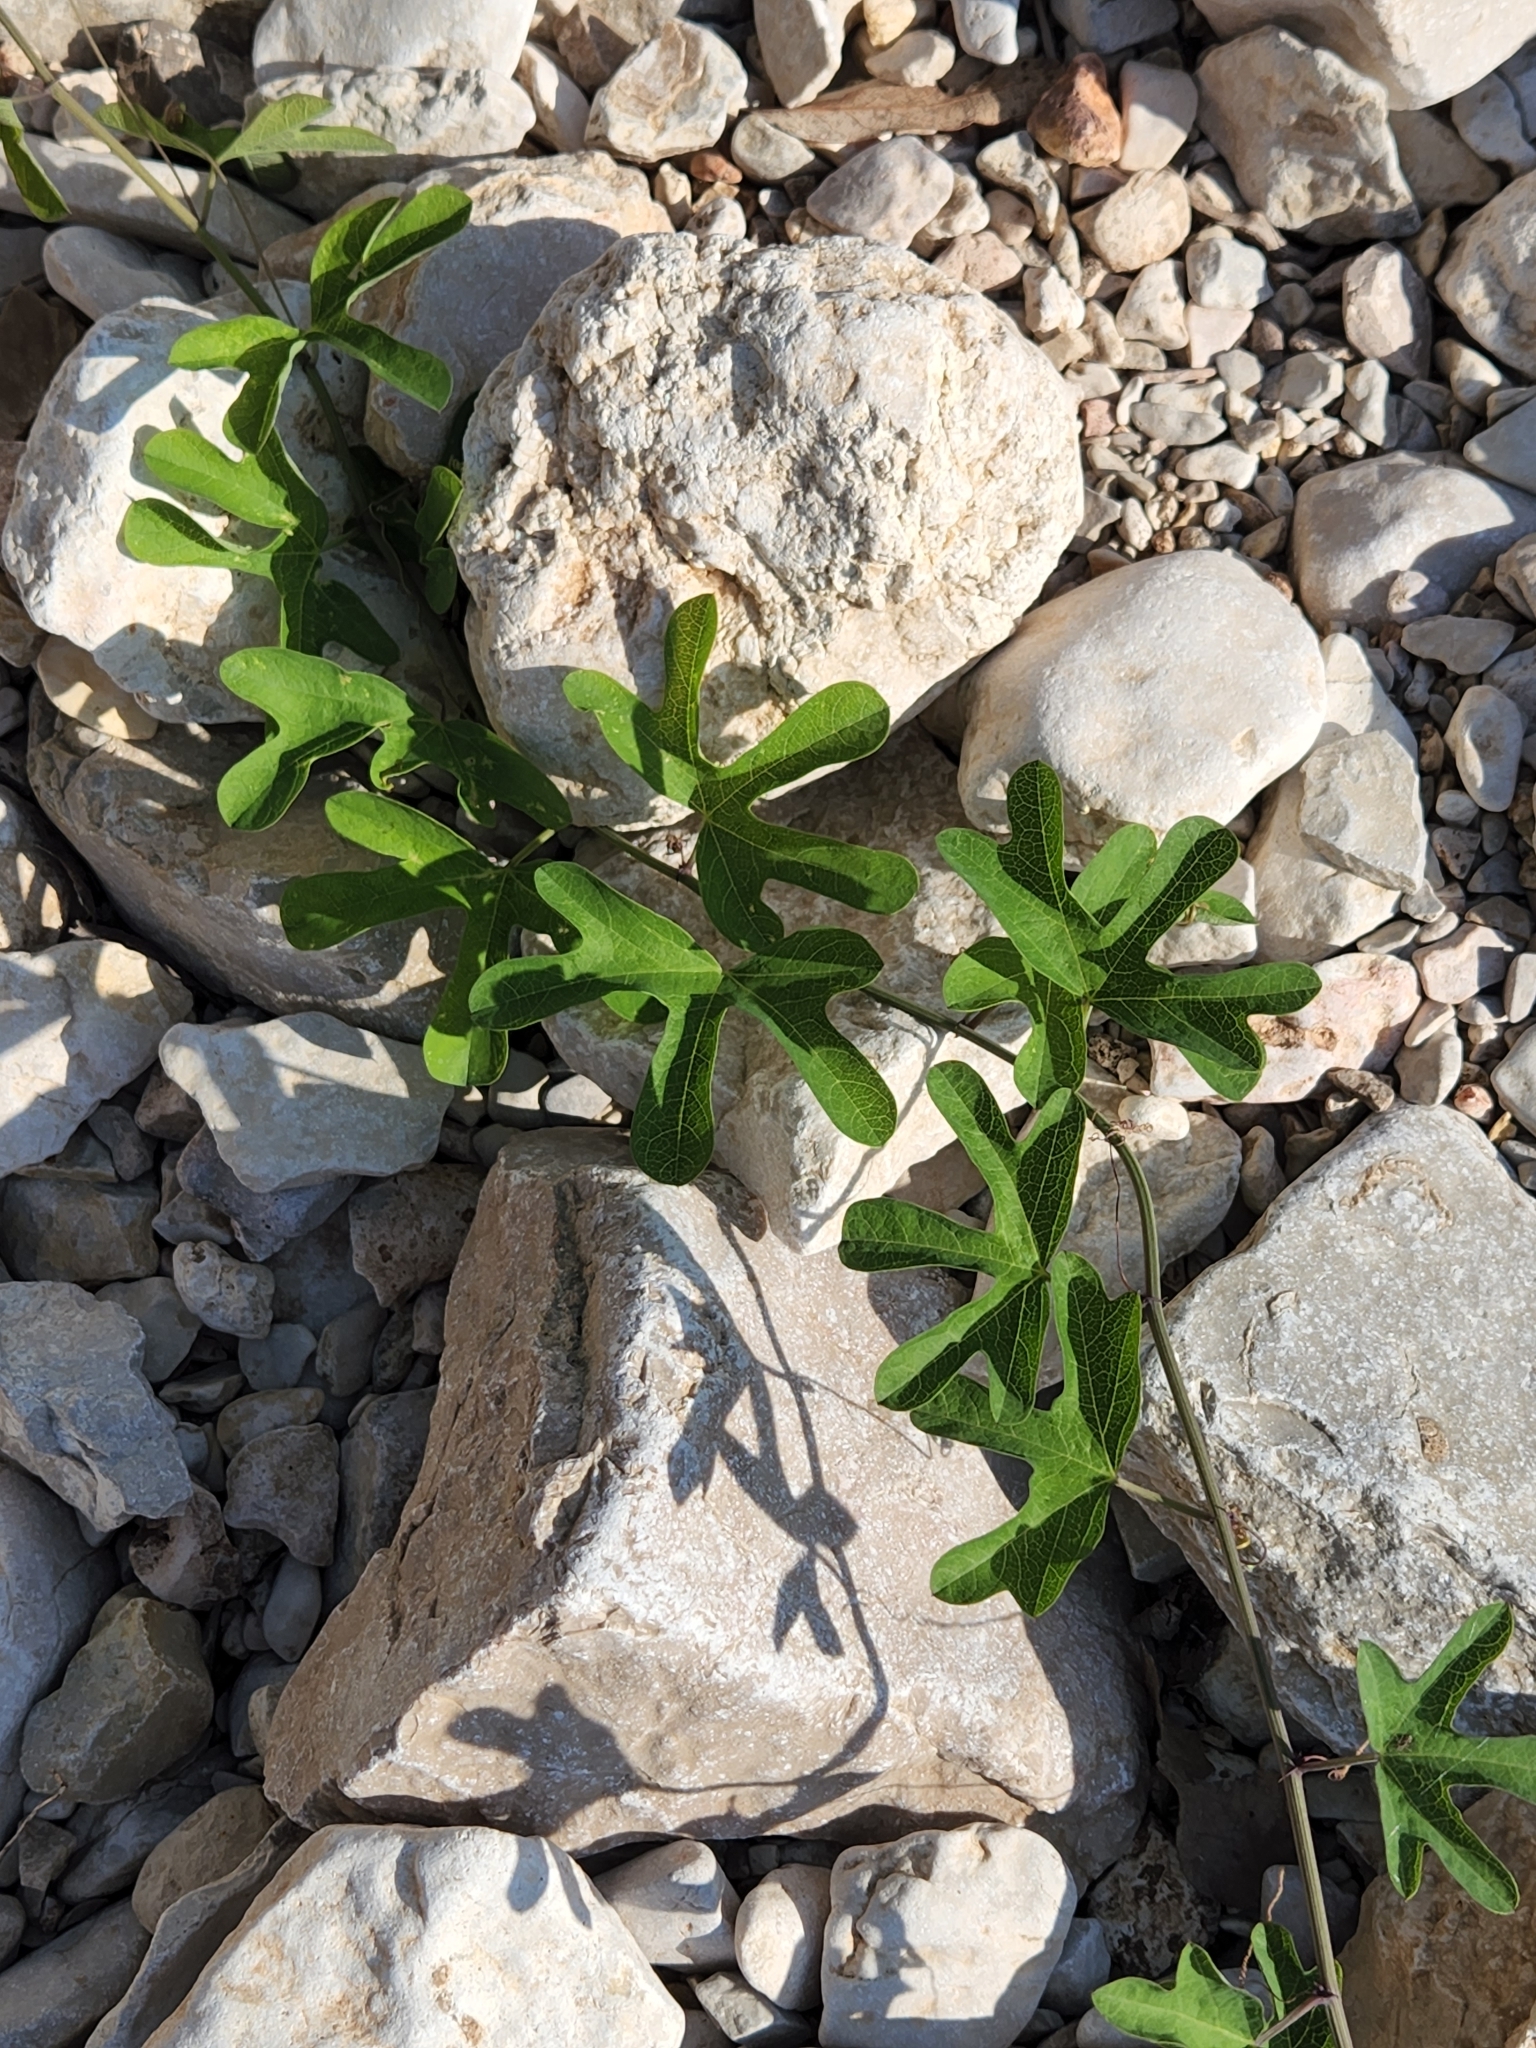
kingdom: Plantae
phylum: Tracheophyta
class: Magnoliopsida
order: Malpighiales
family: Passifloraceae
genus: Passiflora
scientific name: Passiflora affinis
